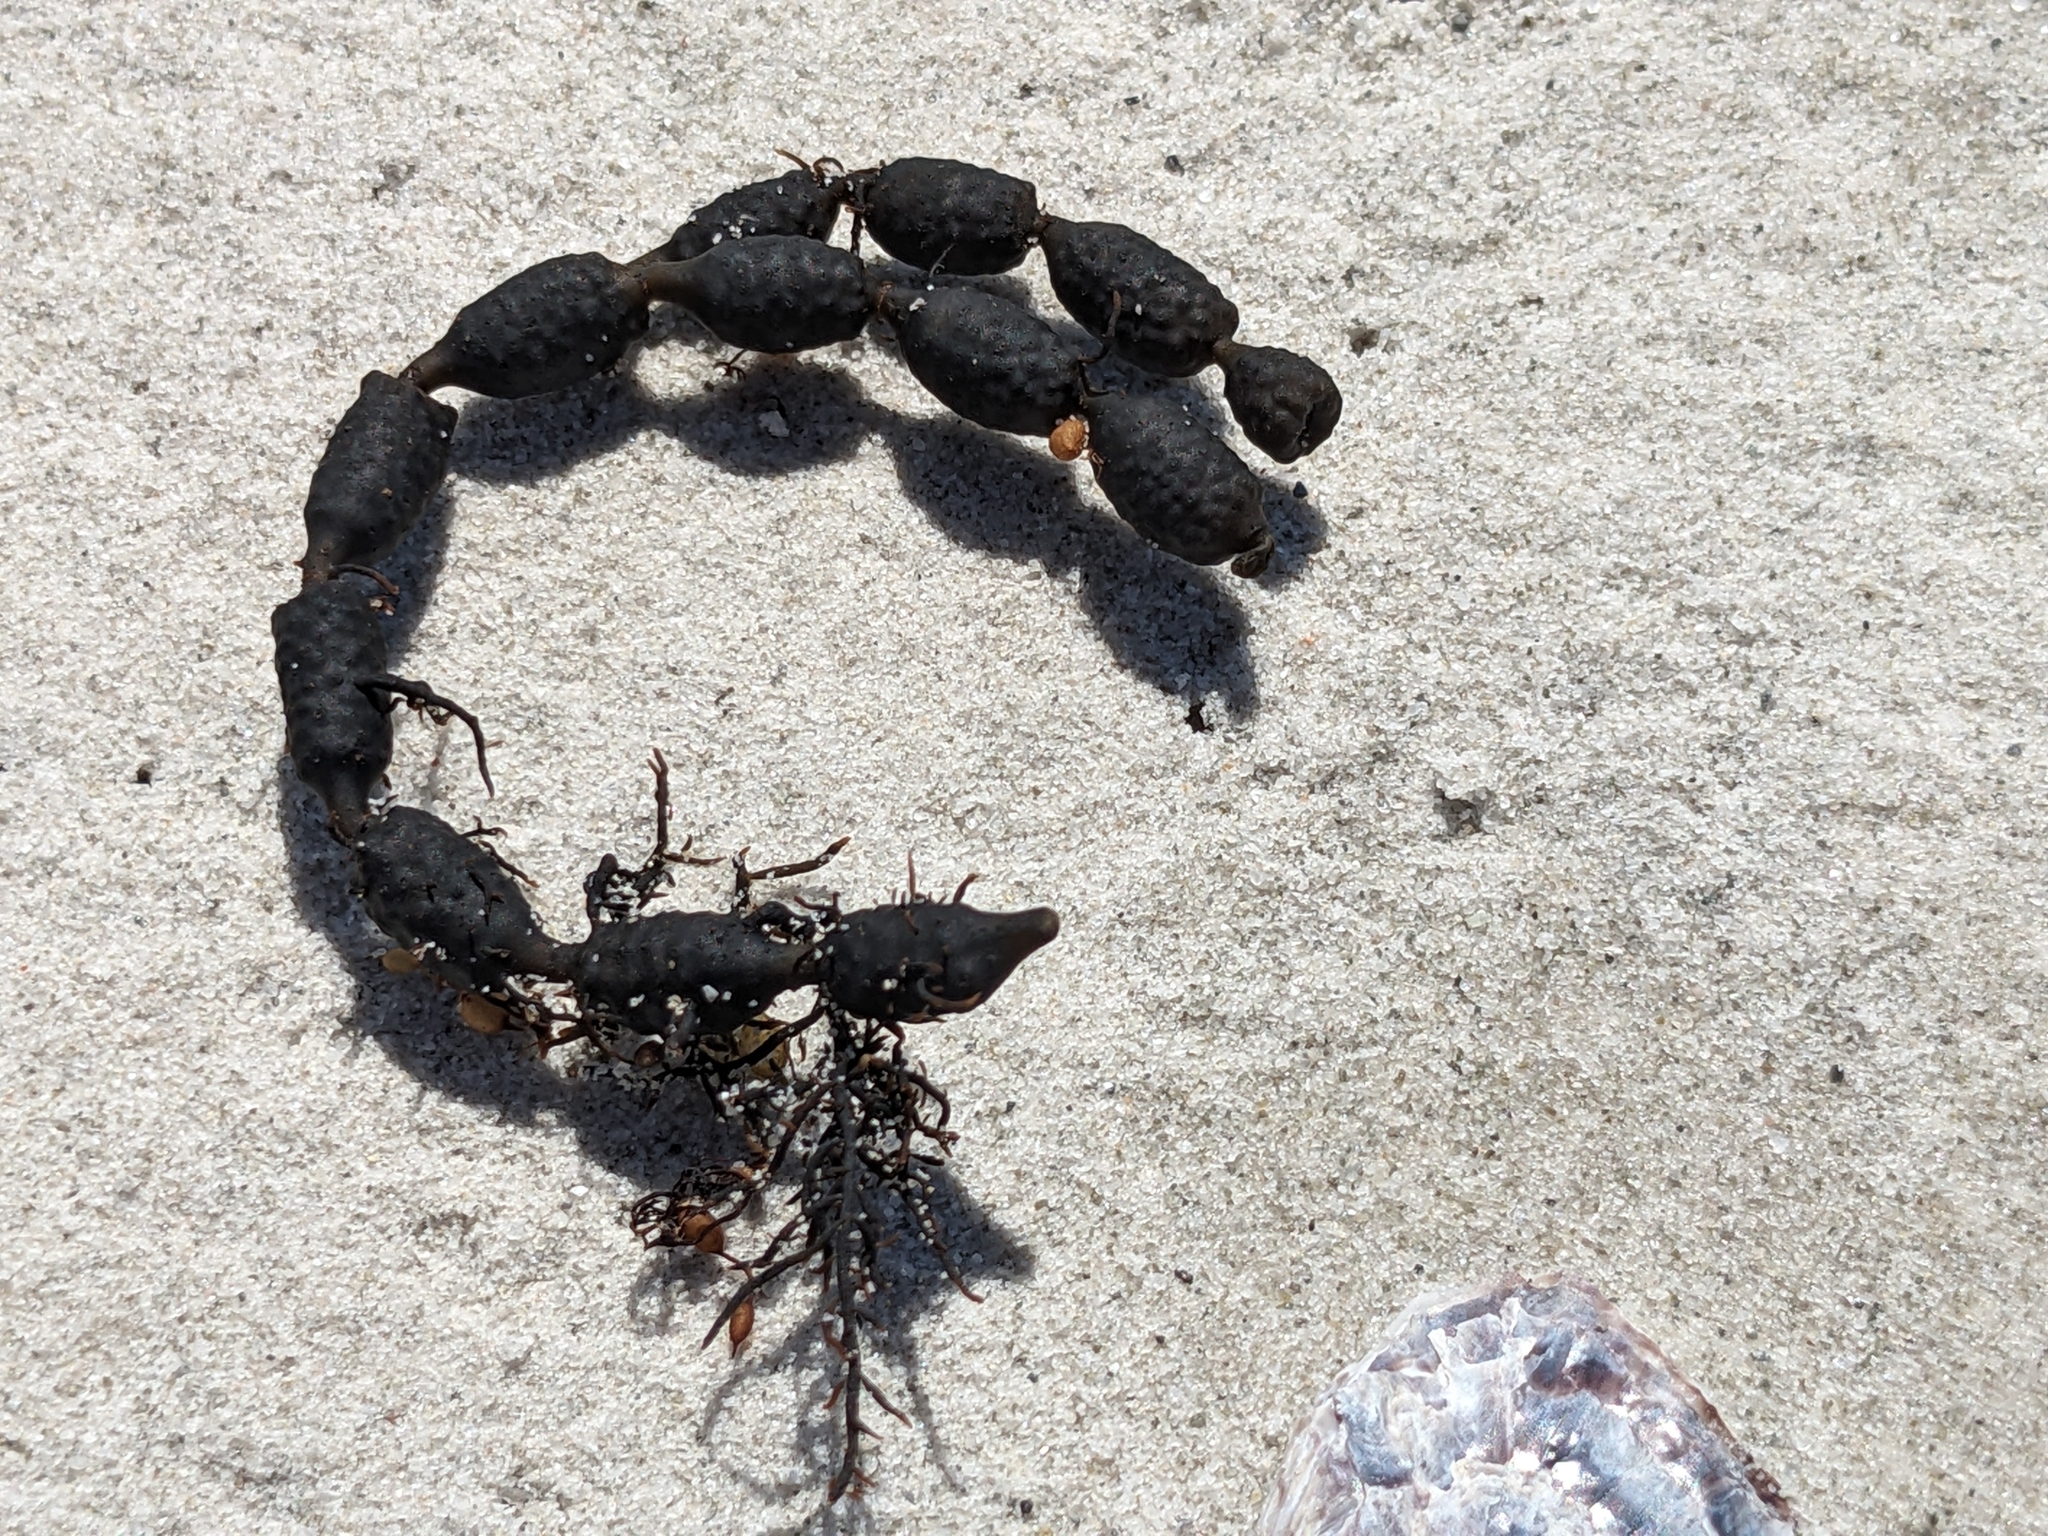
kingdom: Chromista
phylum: Ochrophyta
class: Phaeophyceae
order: Fucales
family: Hormosiraceae
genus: Hormosira
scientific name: Hormosira banksii
